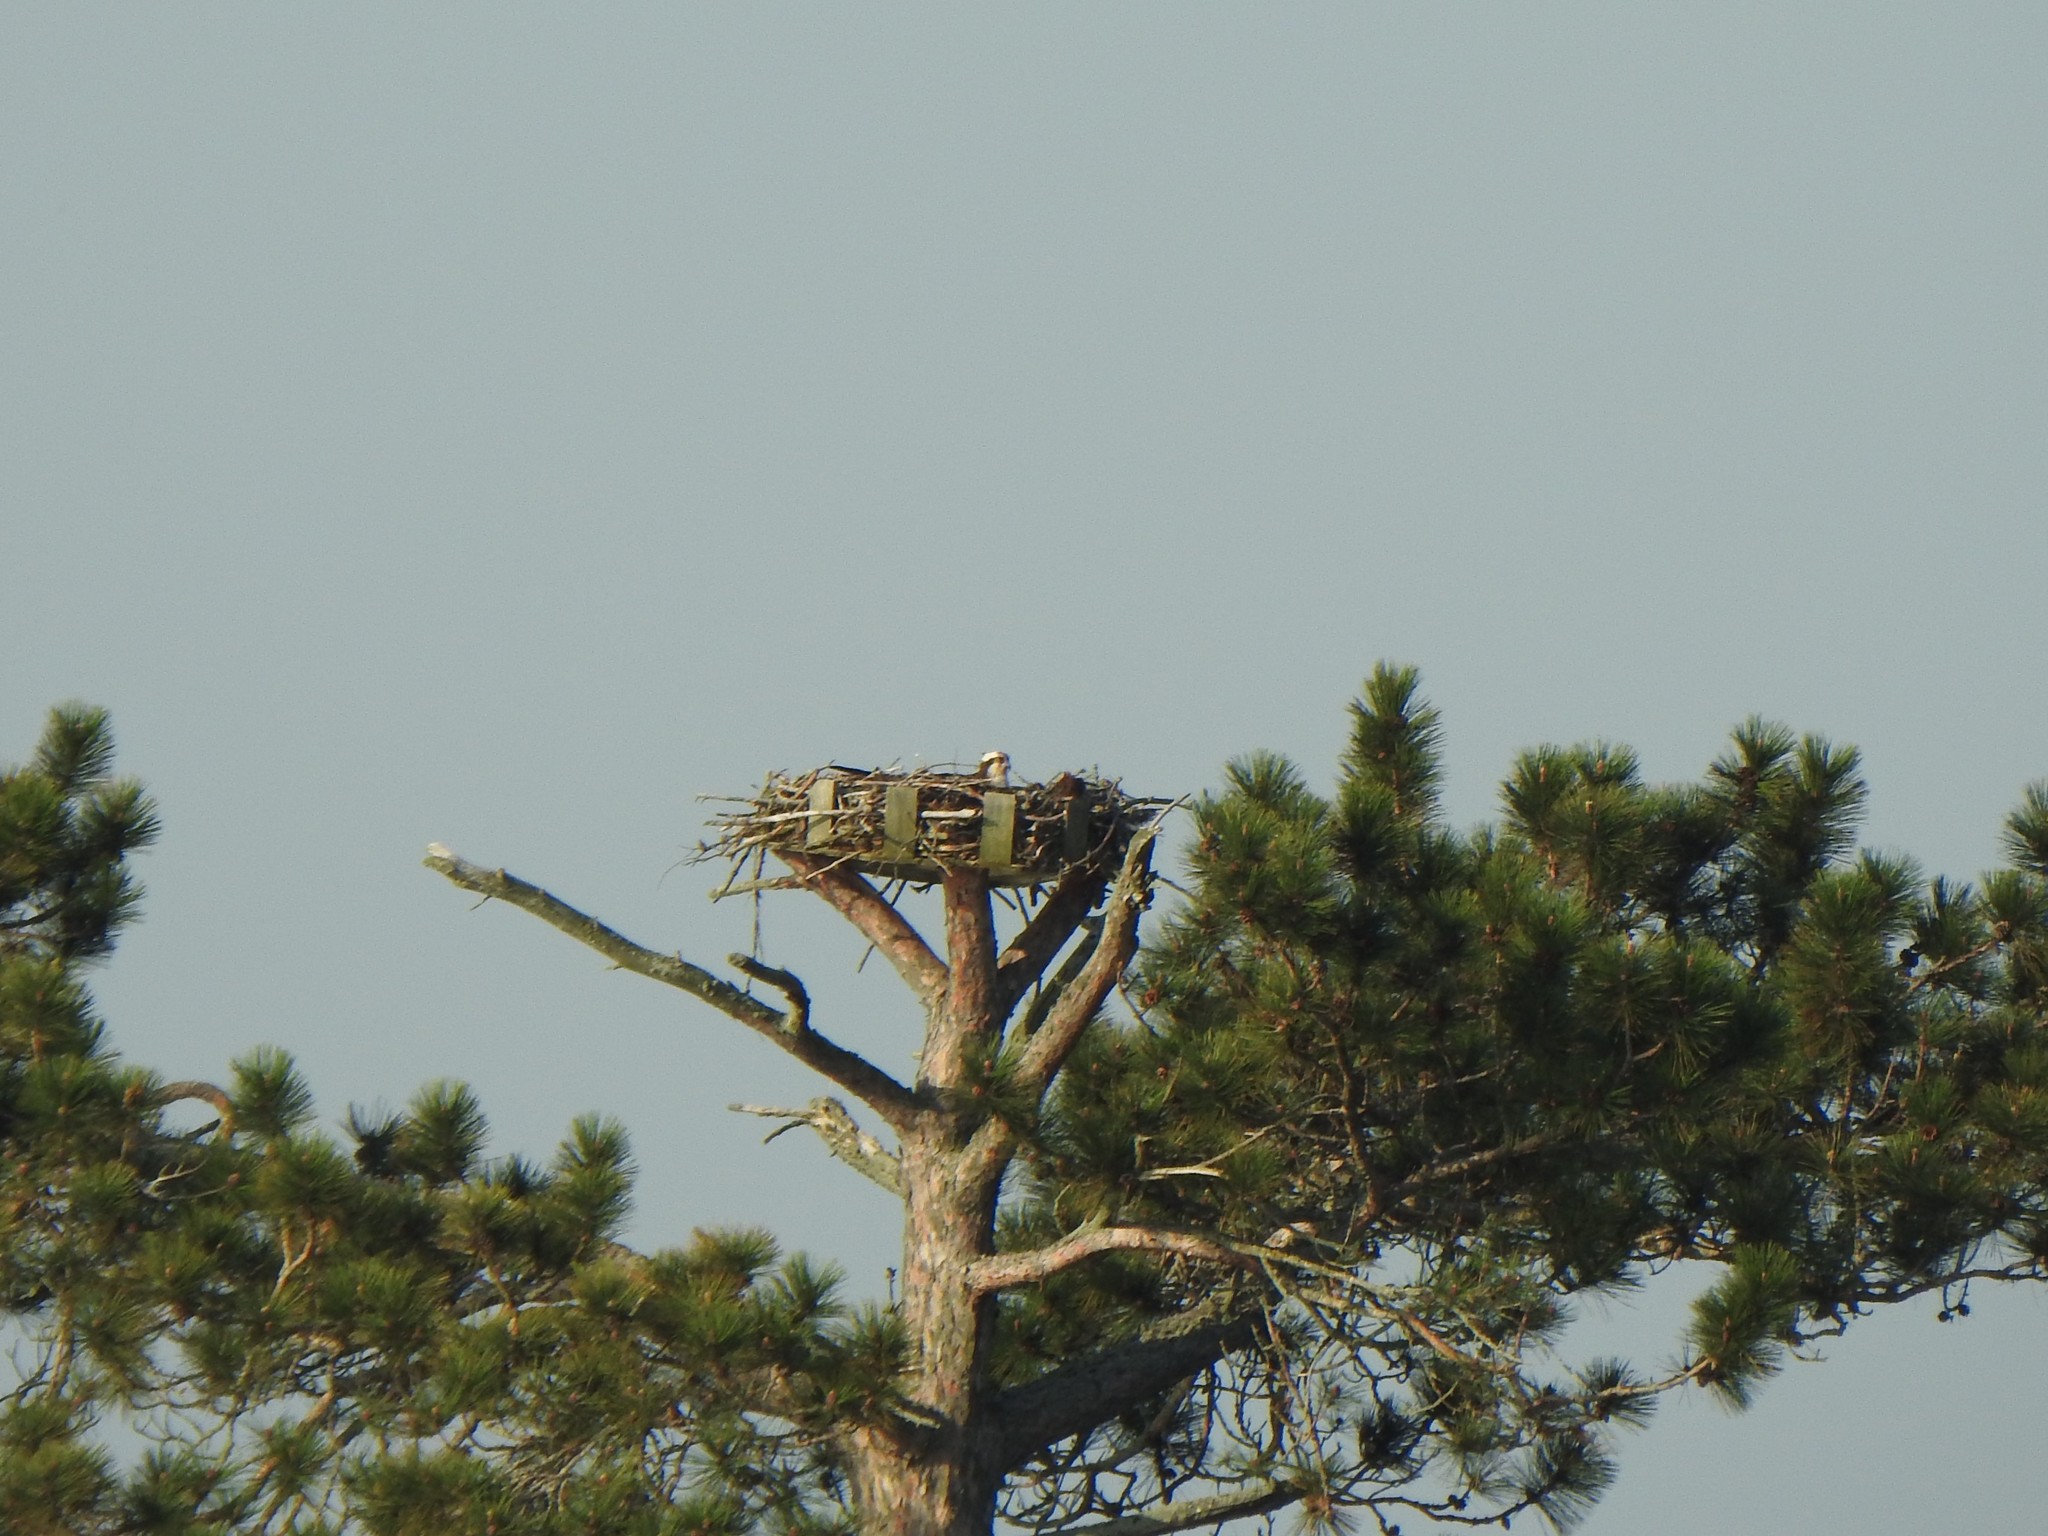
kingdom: Animalia
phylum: Chordata
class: Aves
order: Accipitriformes
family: Pandionidae
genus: Pandion
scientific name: Pandion haliaetus
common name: Osprey
